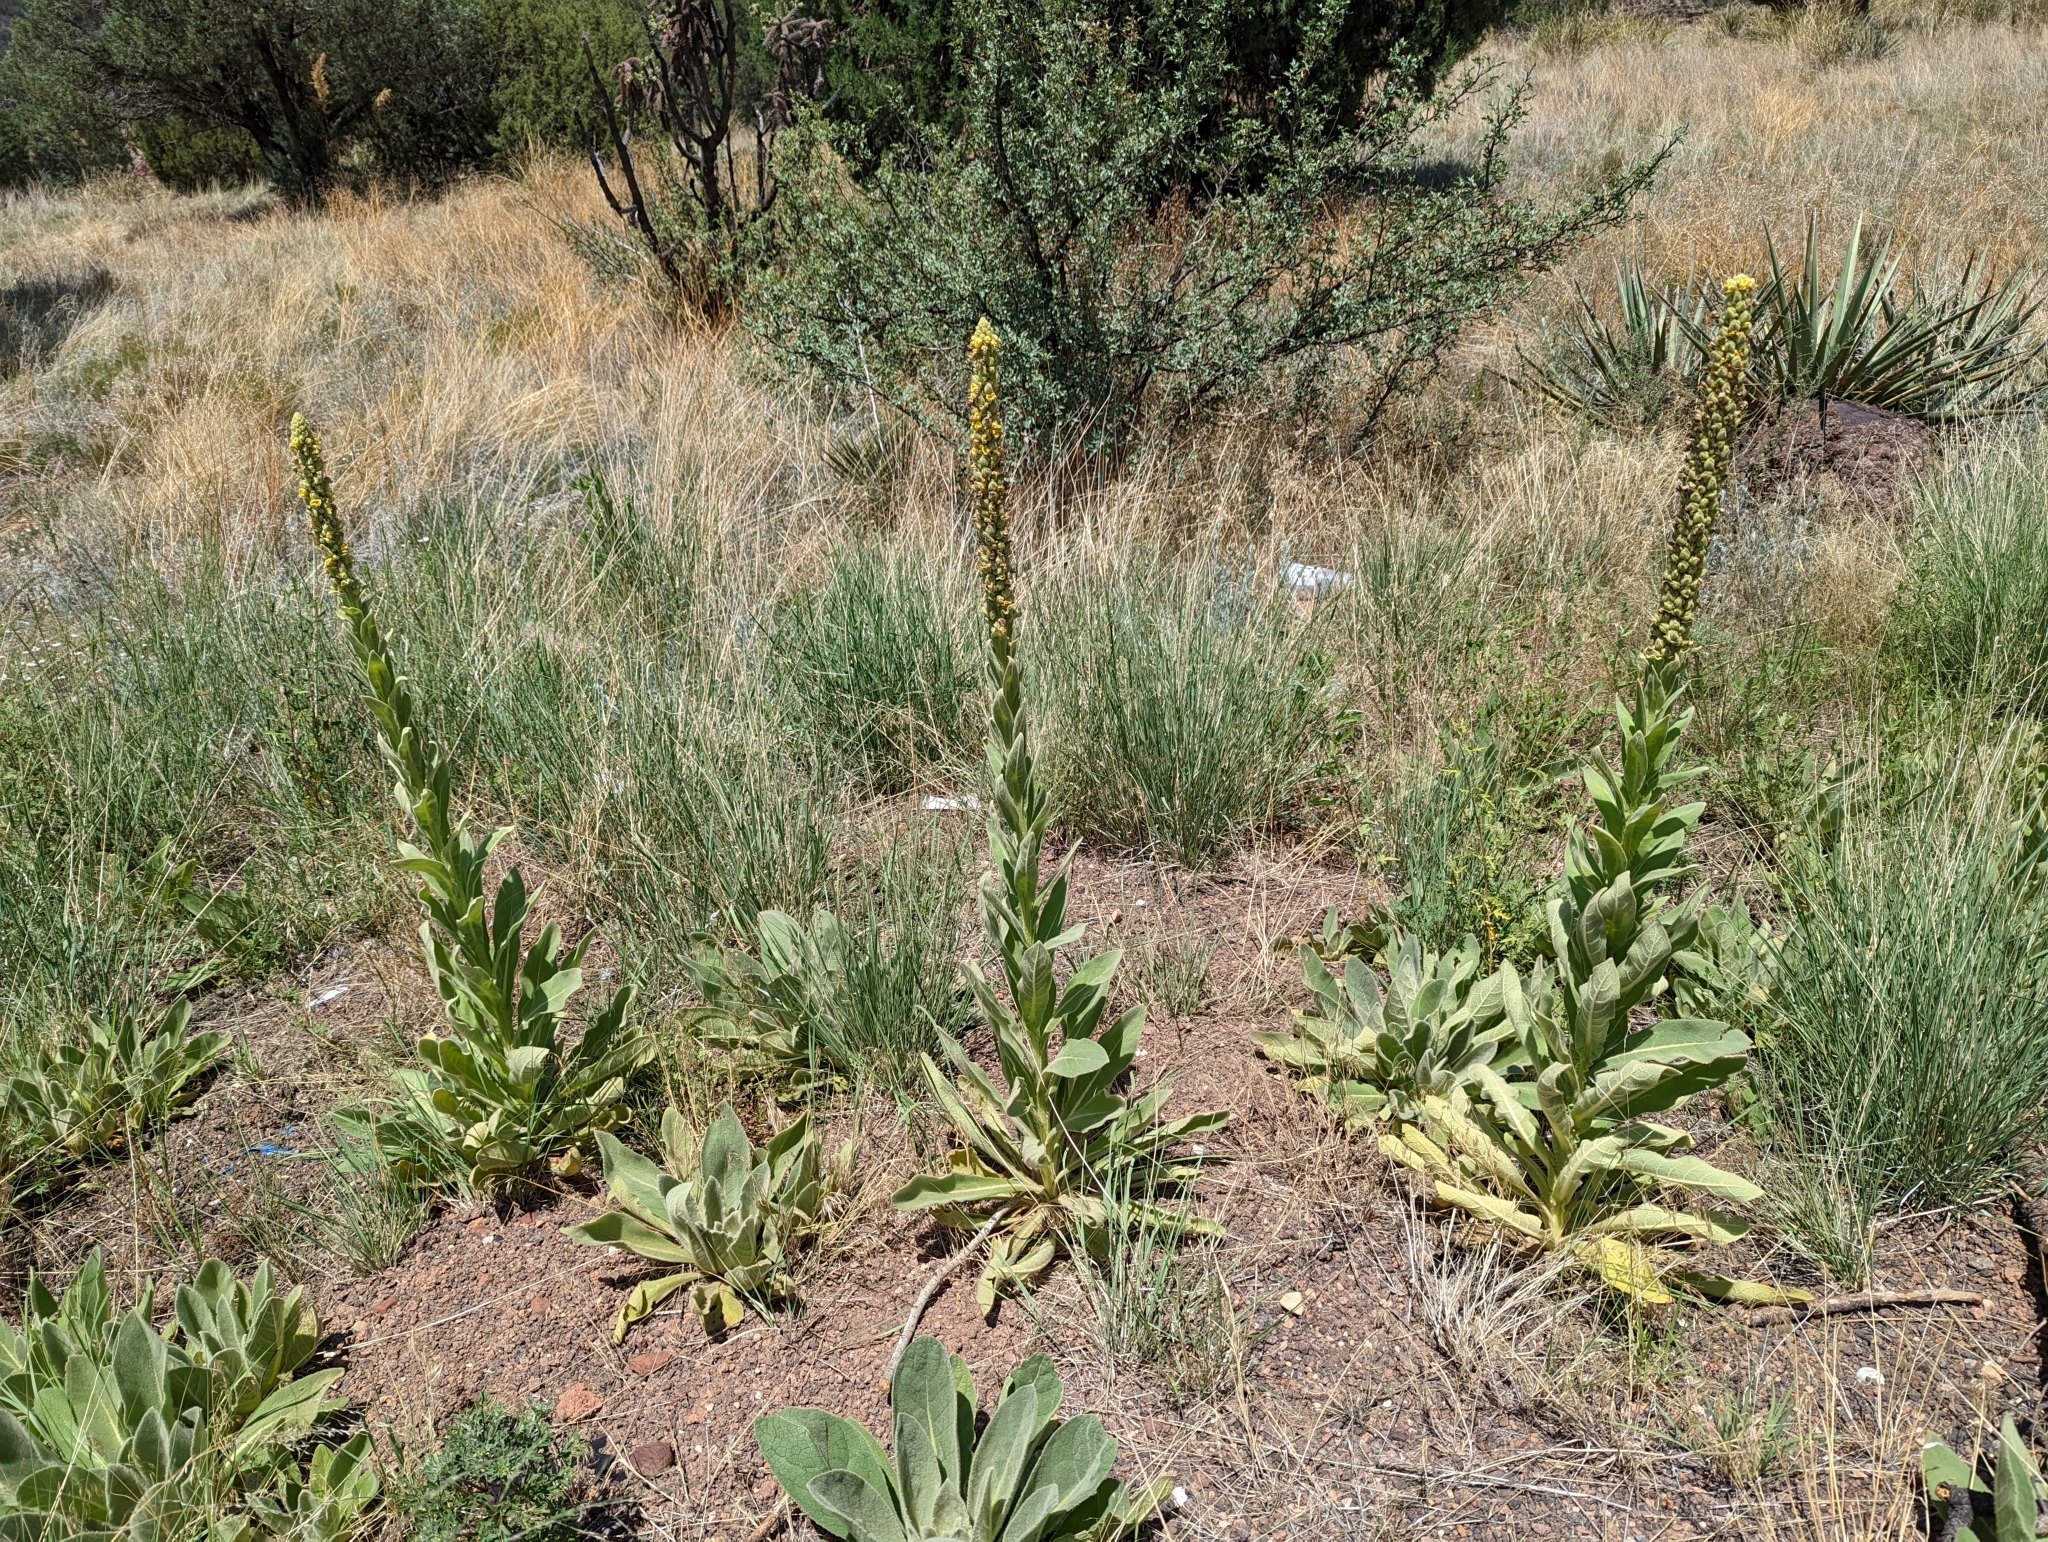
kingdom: Plantae
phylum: Tracheophyta
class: Magnoliopsida
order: Lamiales
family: Scrophulariaceae
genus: Verbascum
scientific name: Verbascum thapsus
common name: Common mullein
